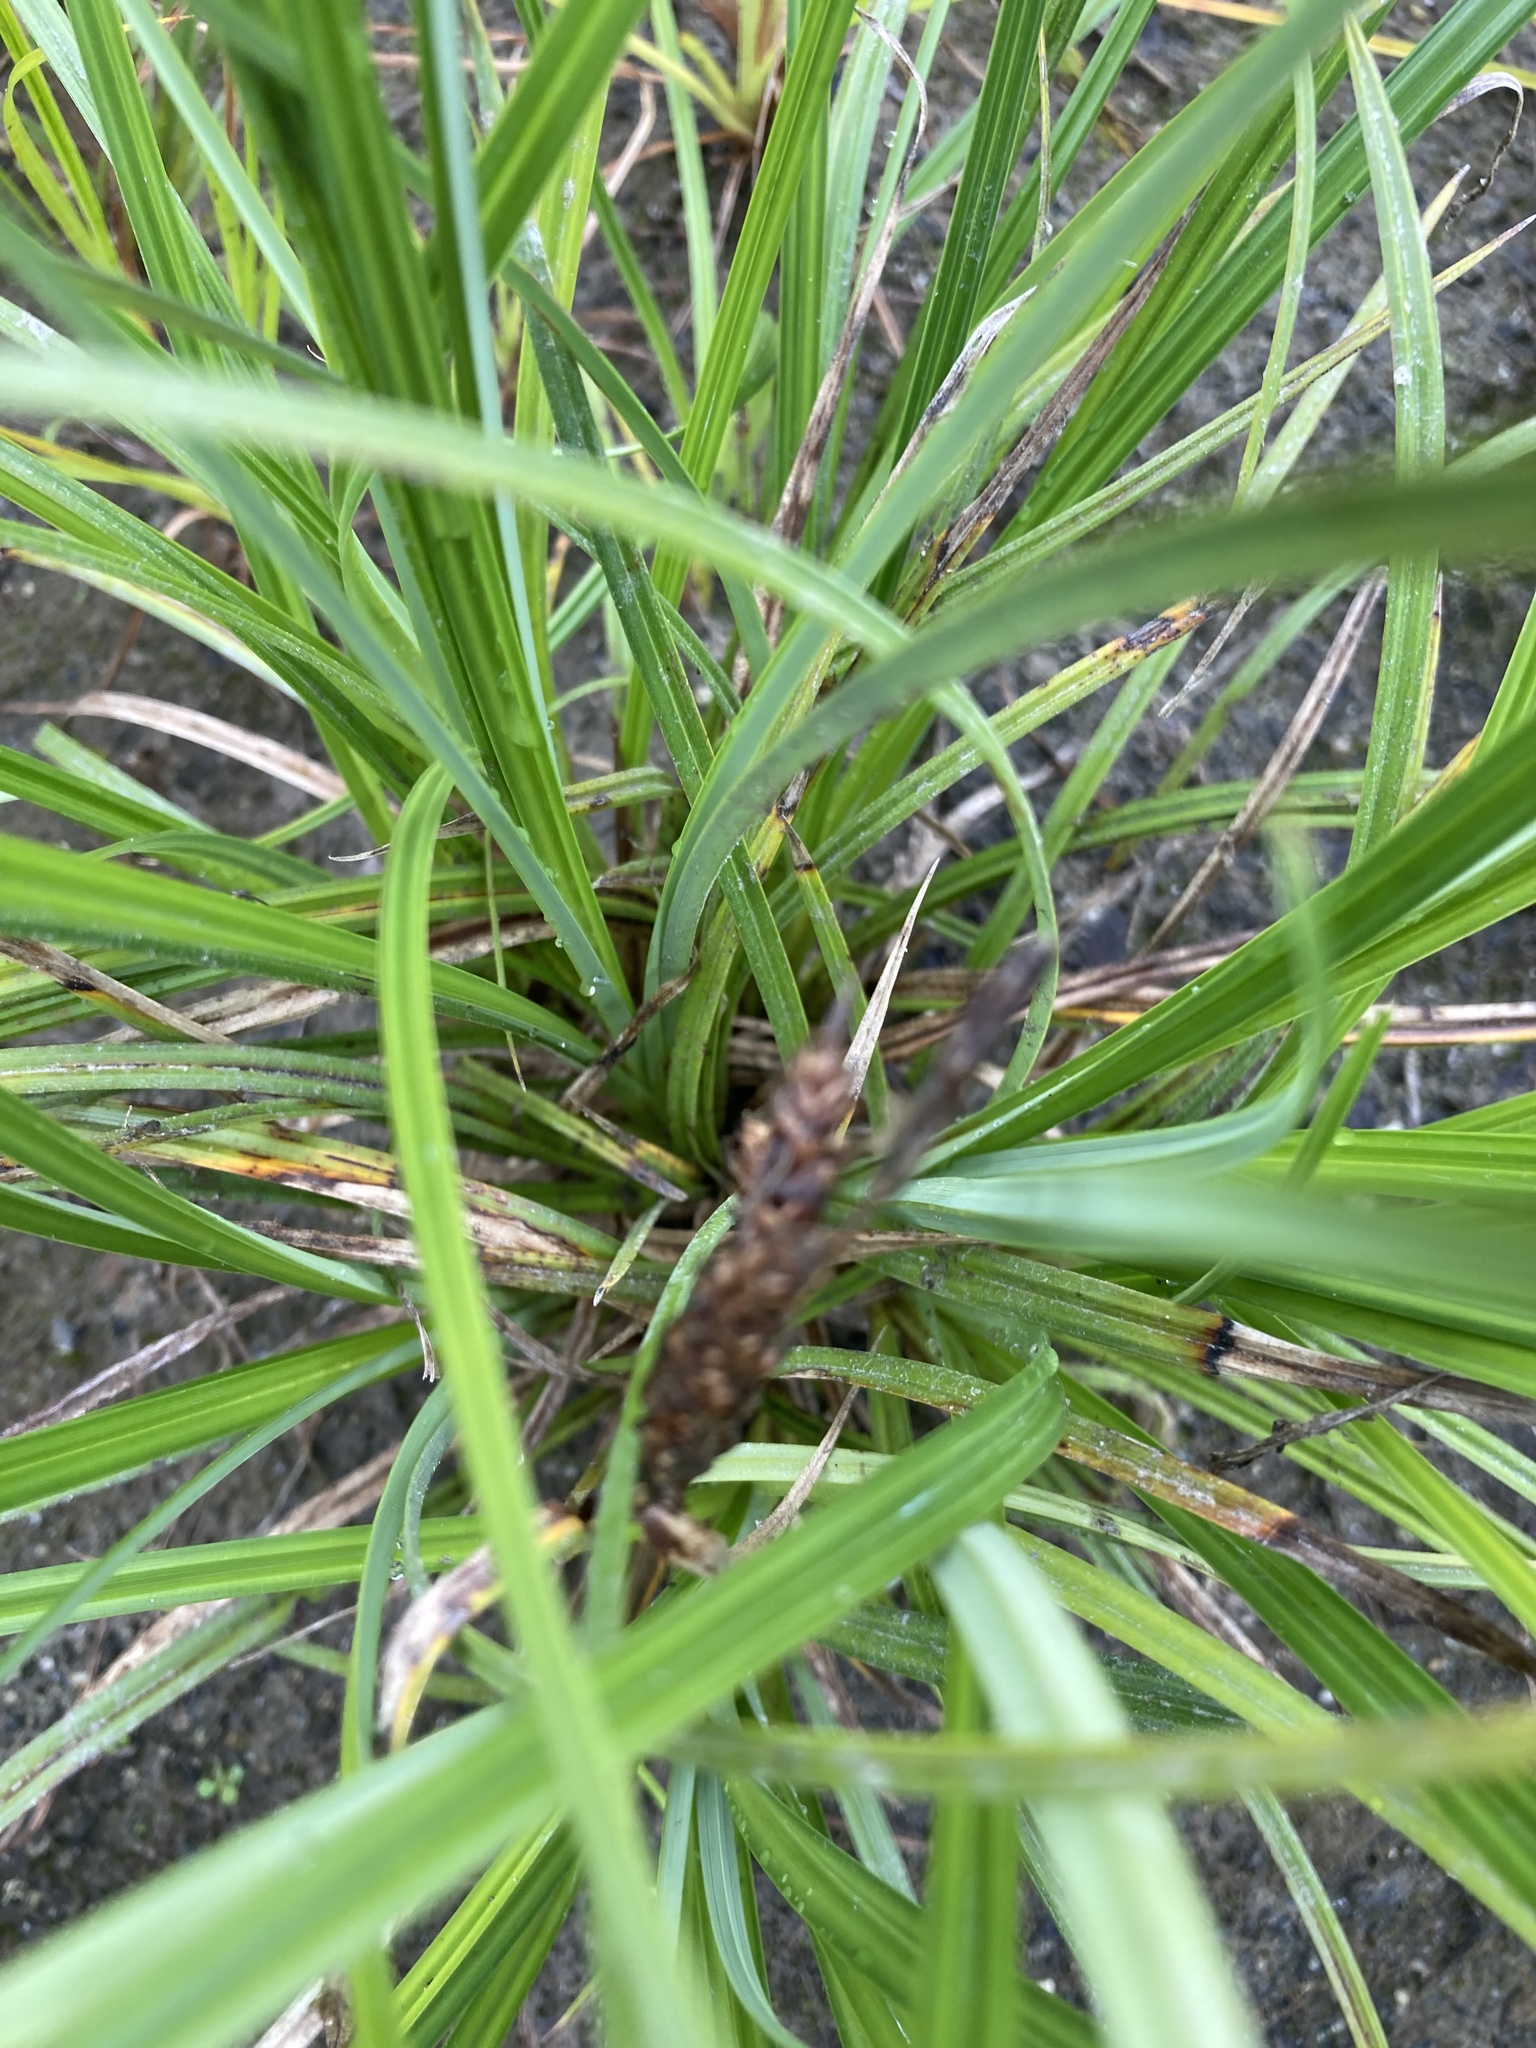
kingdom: Plantae
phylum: Tracheophyta
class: Liliopsida
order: Poales
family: Cyperaceae
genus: Carex
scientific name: Carex obnupta
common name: Slough sedge
